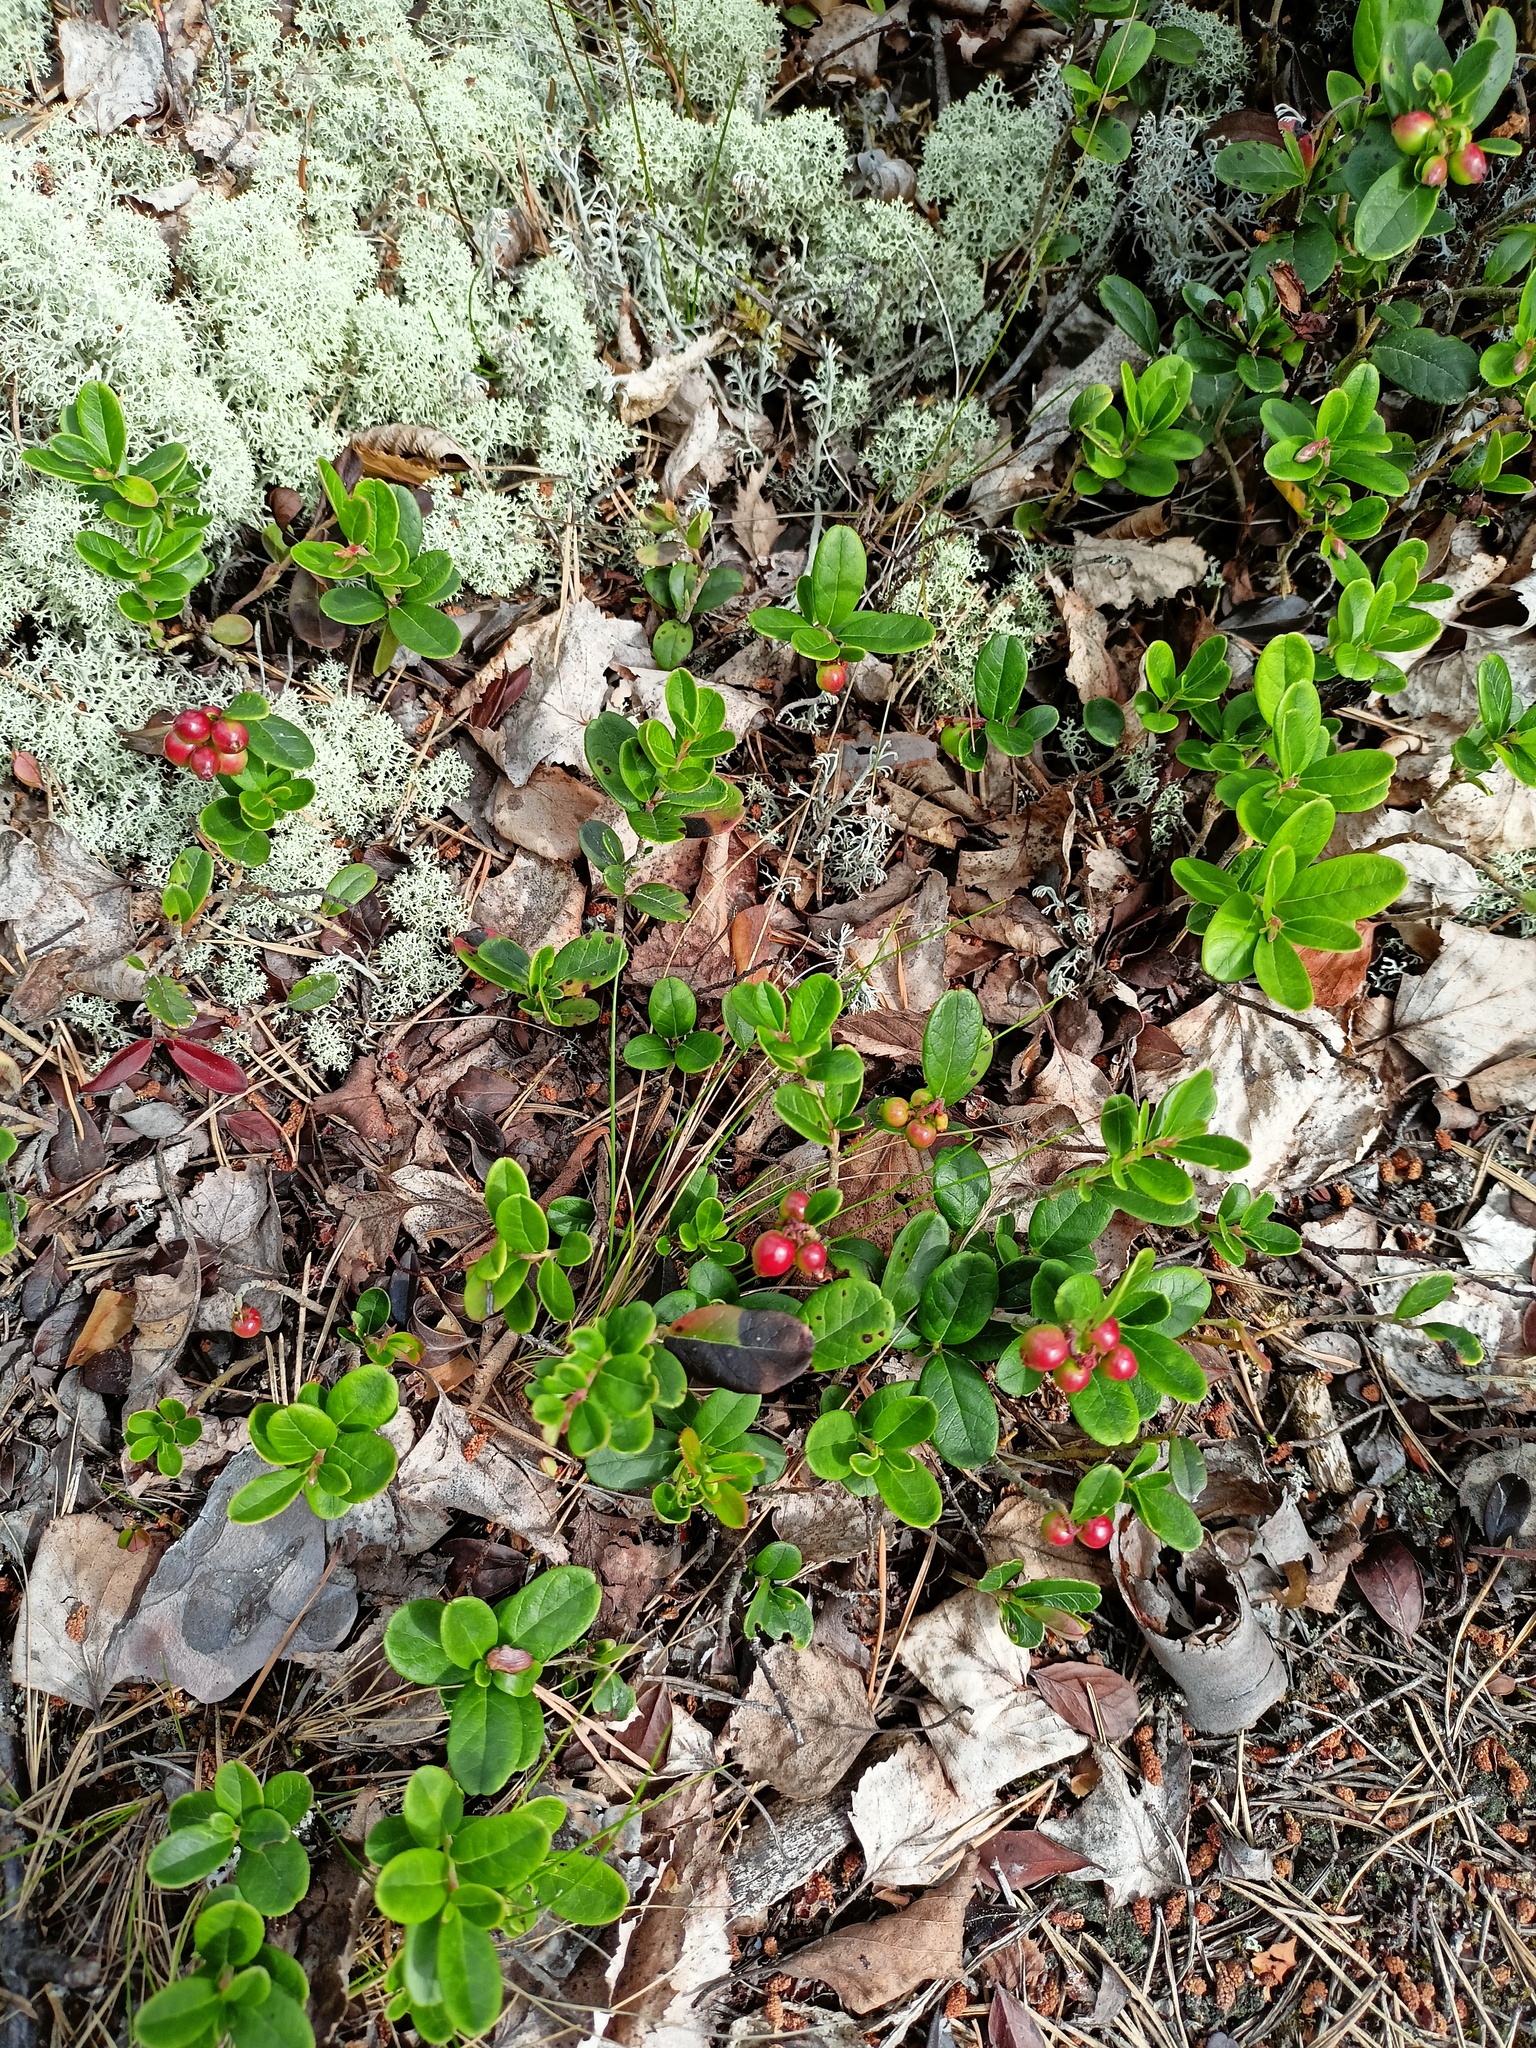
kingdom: Plantae
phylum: Tracheophyta
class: Magnoliopsida
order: Ericales
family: Ericaceae
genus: Vaccinium
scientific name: Vaccinium vitis-idaea
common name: Cowberry
